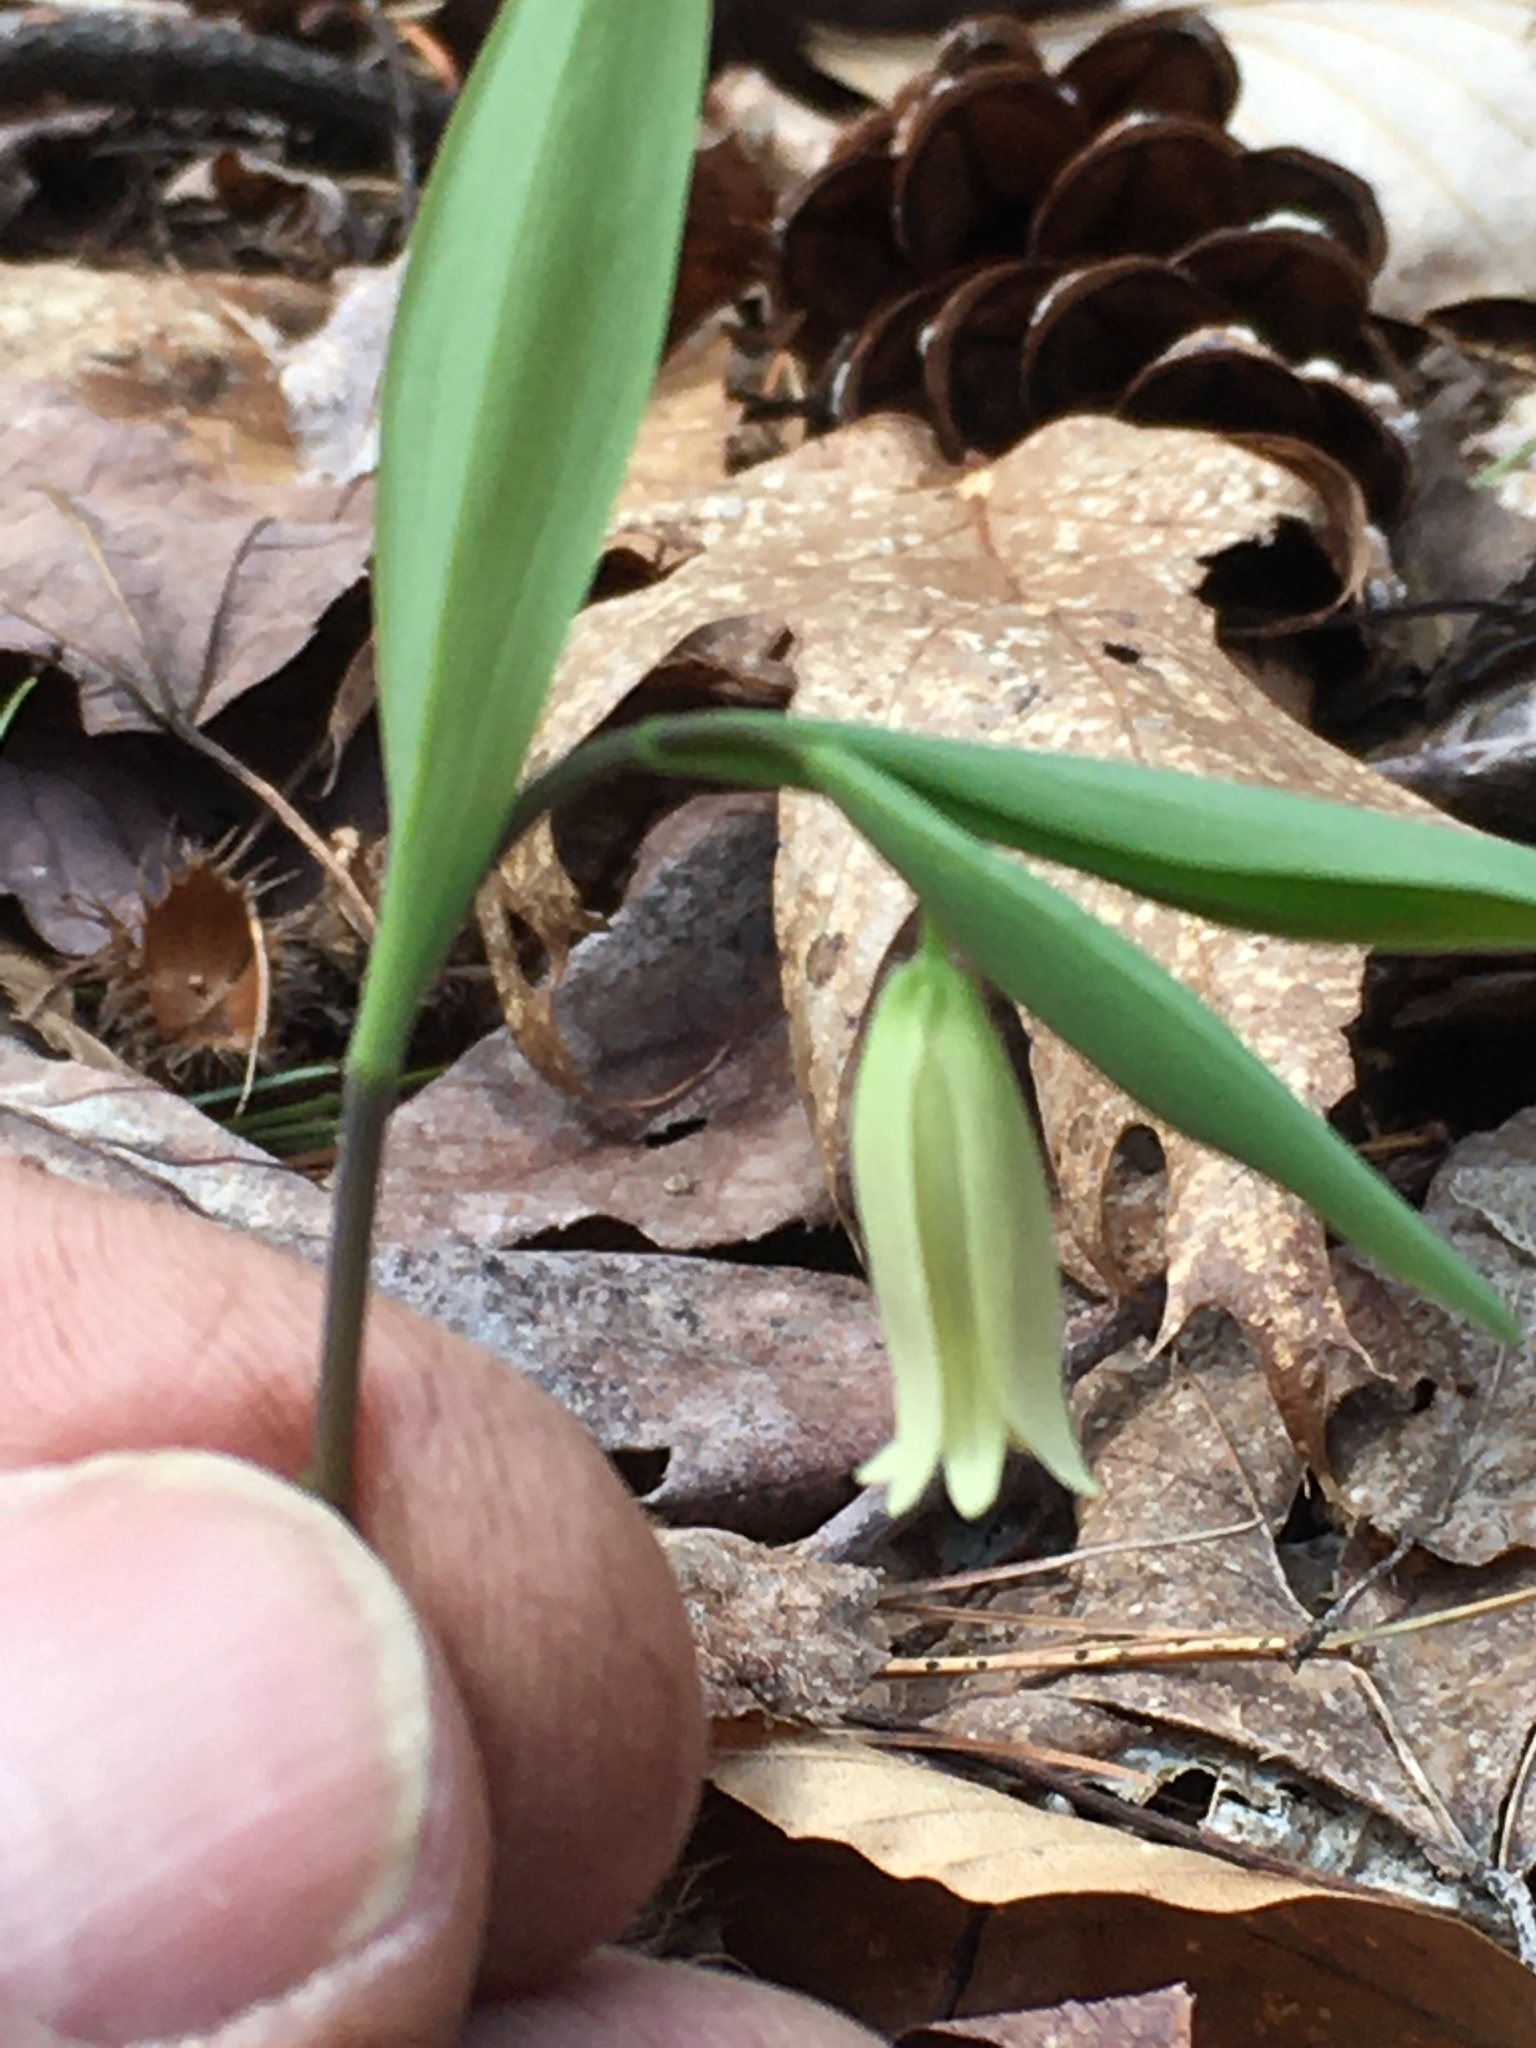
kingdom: Plantae
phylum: Tracheophyta
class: Liliopsida
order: Liliales
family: Colchicaceae
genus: Uvularia
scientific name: Uvularia sessilifolia
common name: Straw-lily
